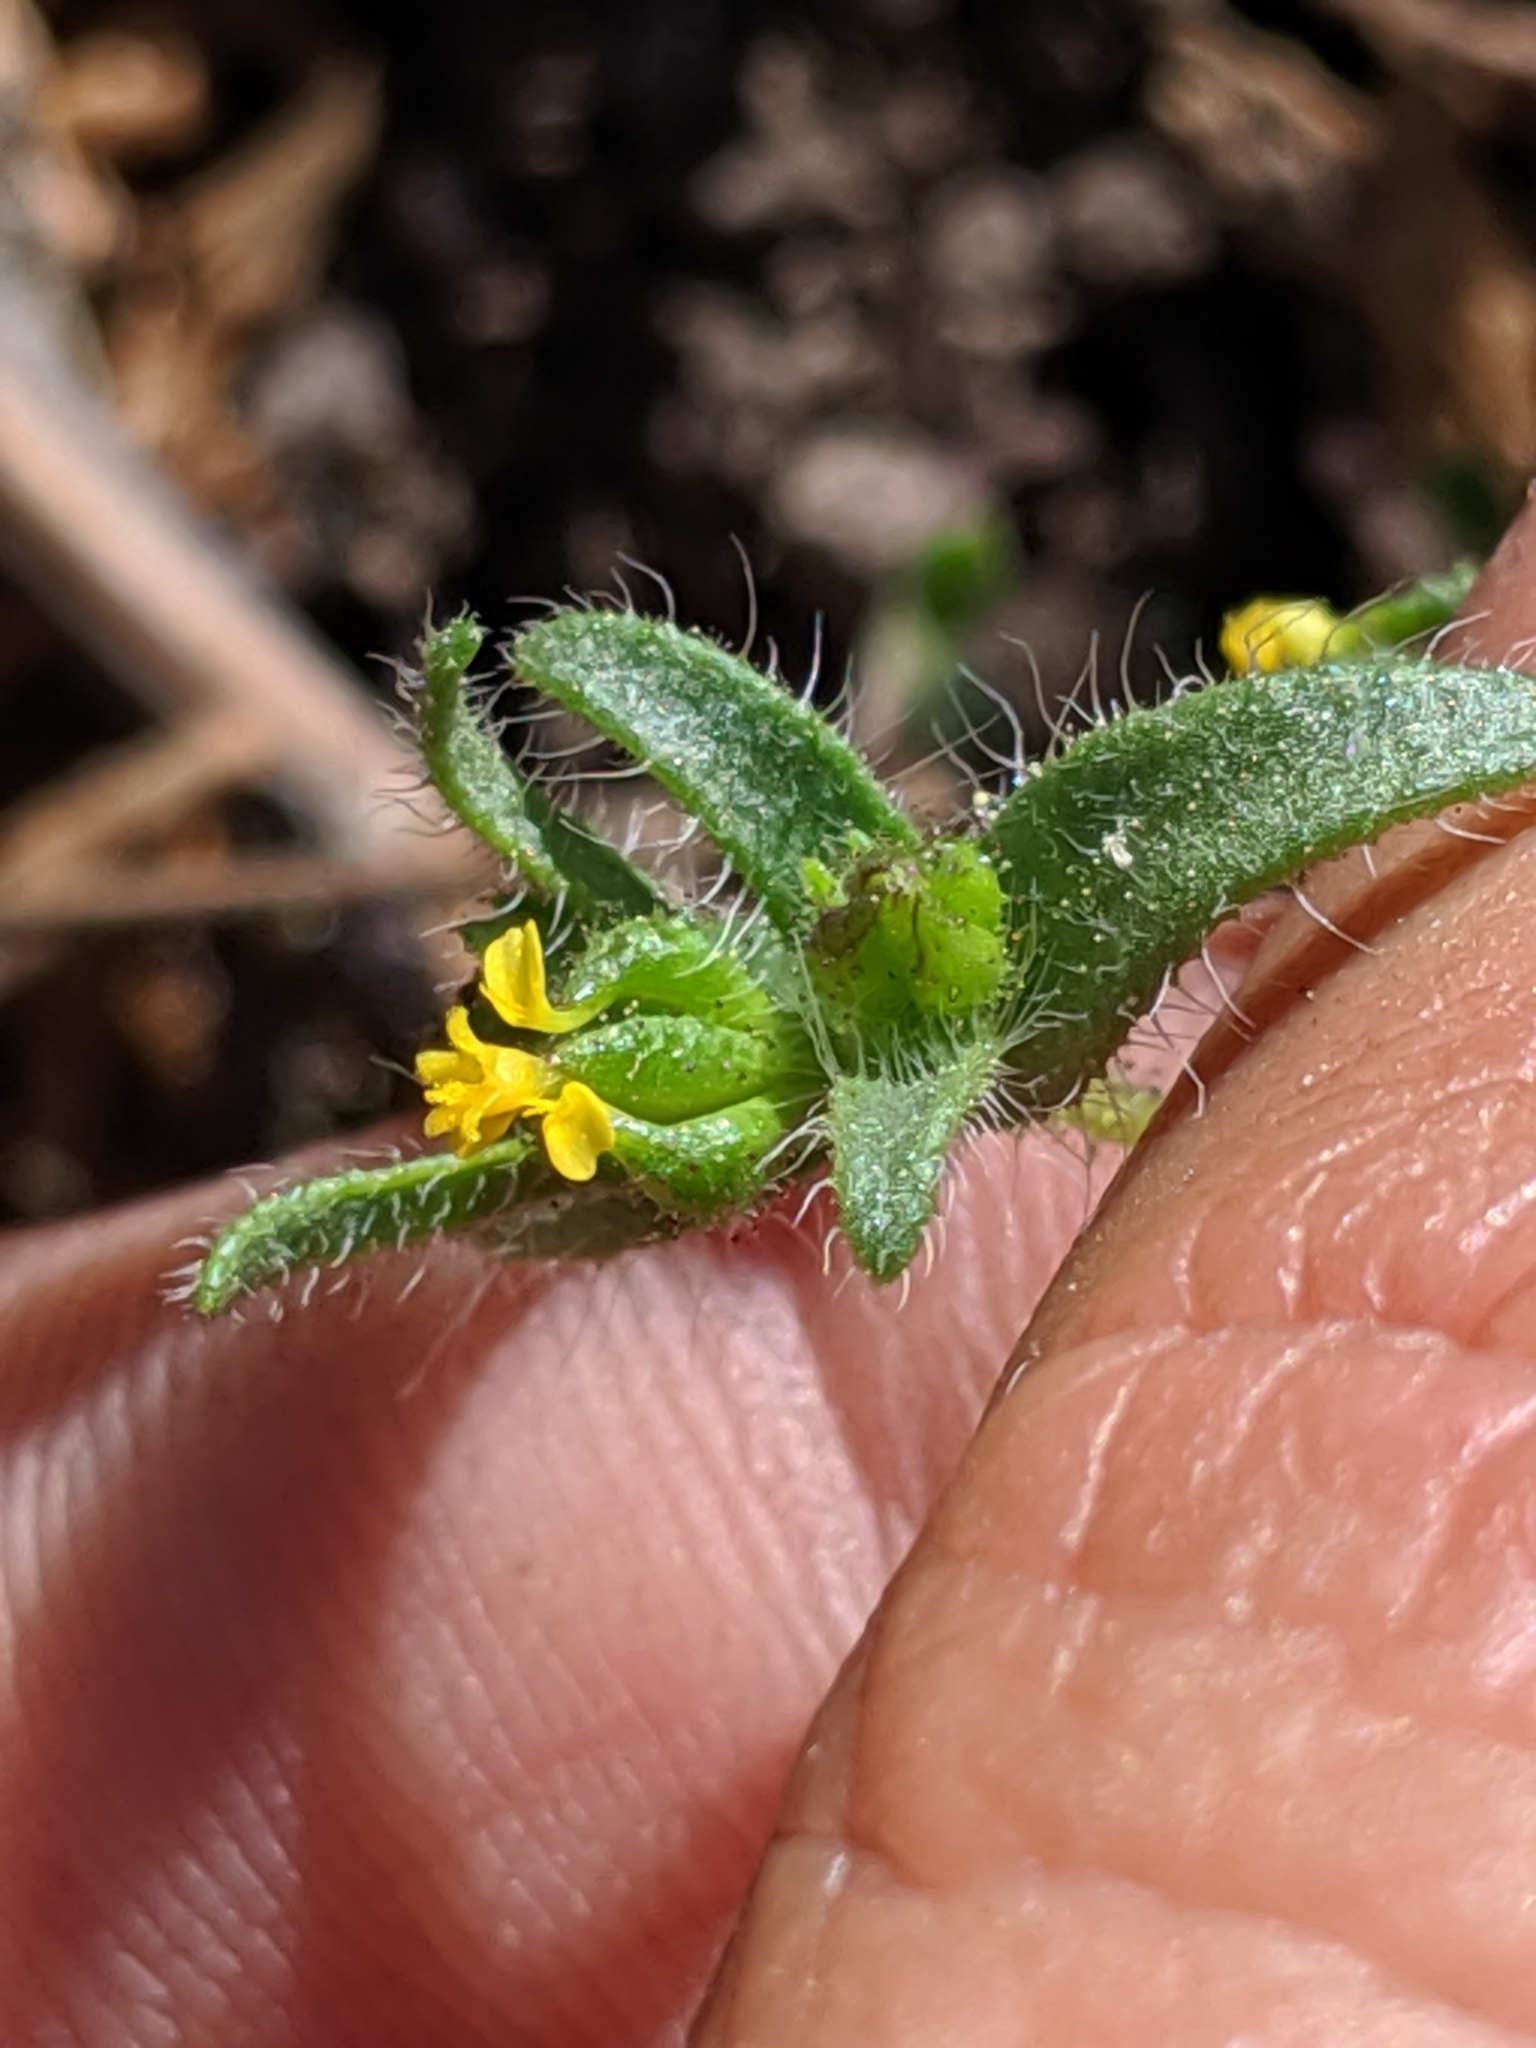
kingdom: Plantae
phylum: Tracheophyta
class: Magnoliopsida
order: Asterales
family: Asteraceae
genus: Madia
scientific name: Madia exigua
